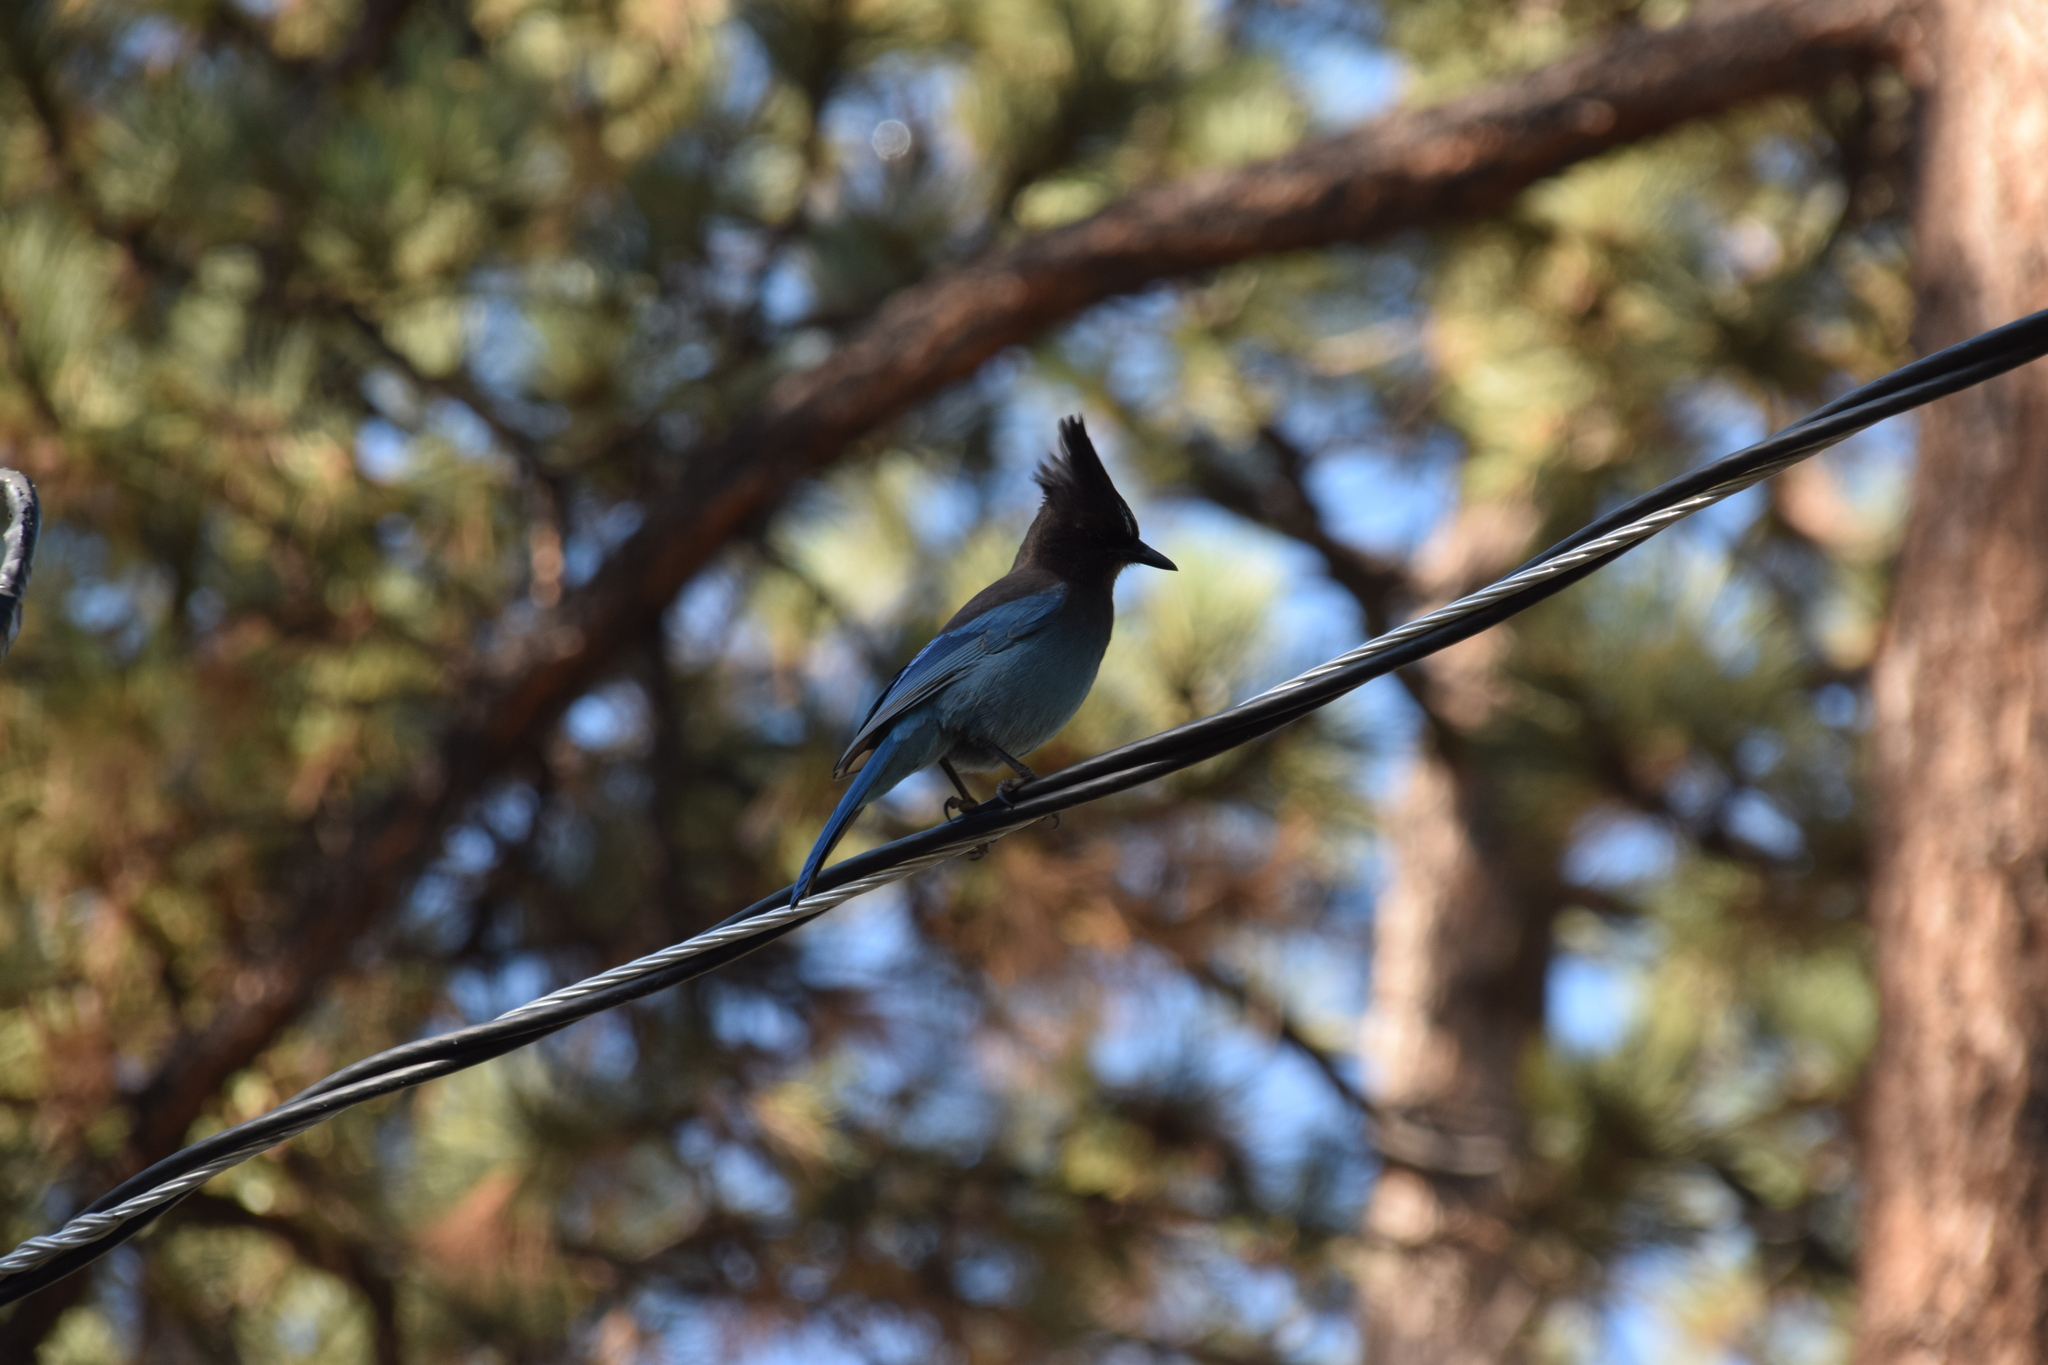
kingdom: Animalia
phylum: Chordata
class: Aves
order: Passeriformes
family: Corvidae
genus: Cyanocitta
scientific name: Cyanocitta stelleri
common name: Steller's jay
